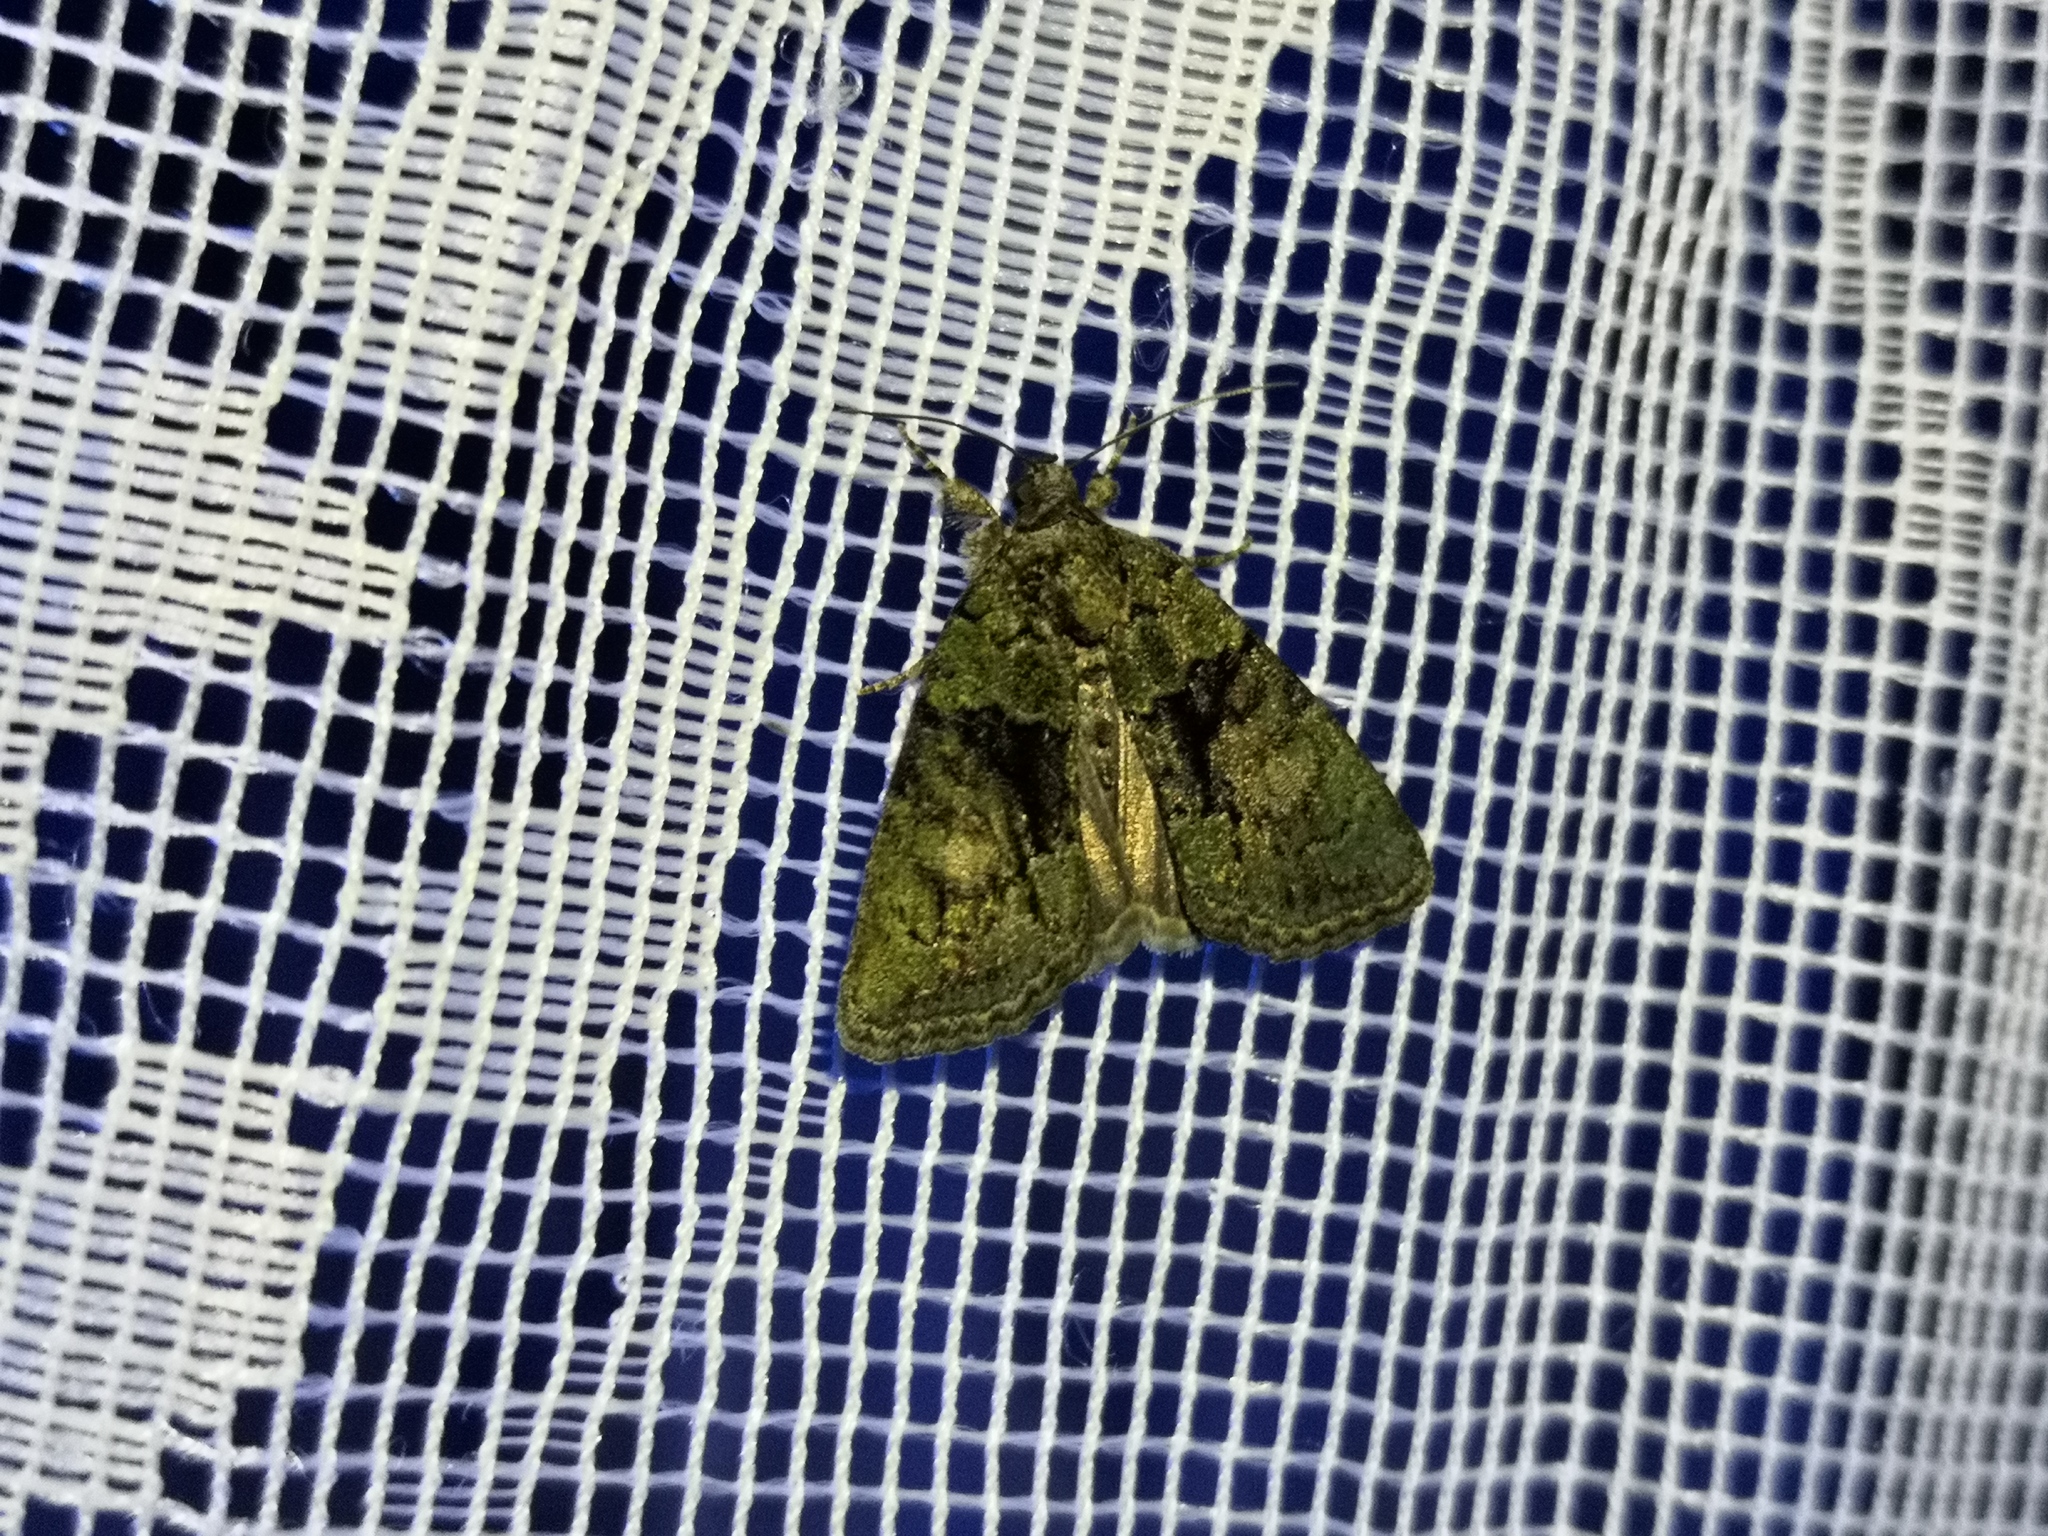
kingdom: Animalia
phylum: Arthropoda
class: Insecta
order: Lepidoptera
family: Noctuidae
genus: Cryphia
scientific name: Cryphia algae
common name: Tree-lichen beauty
